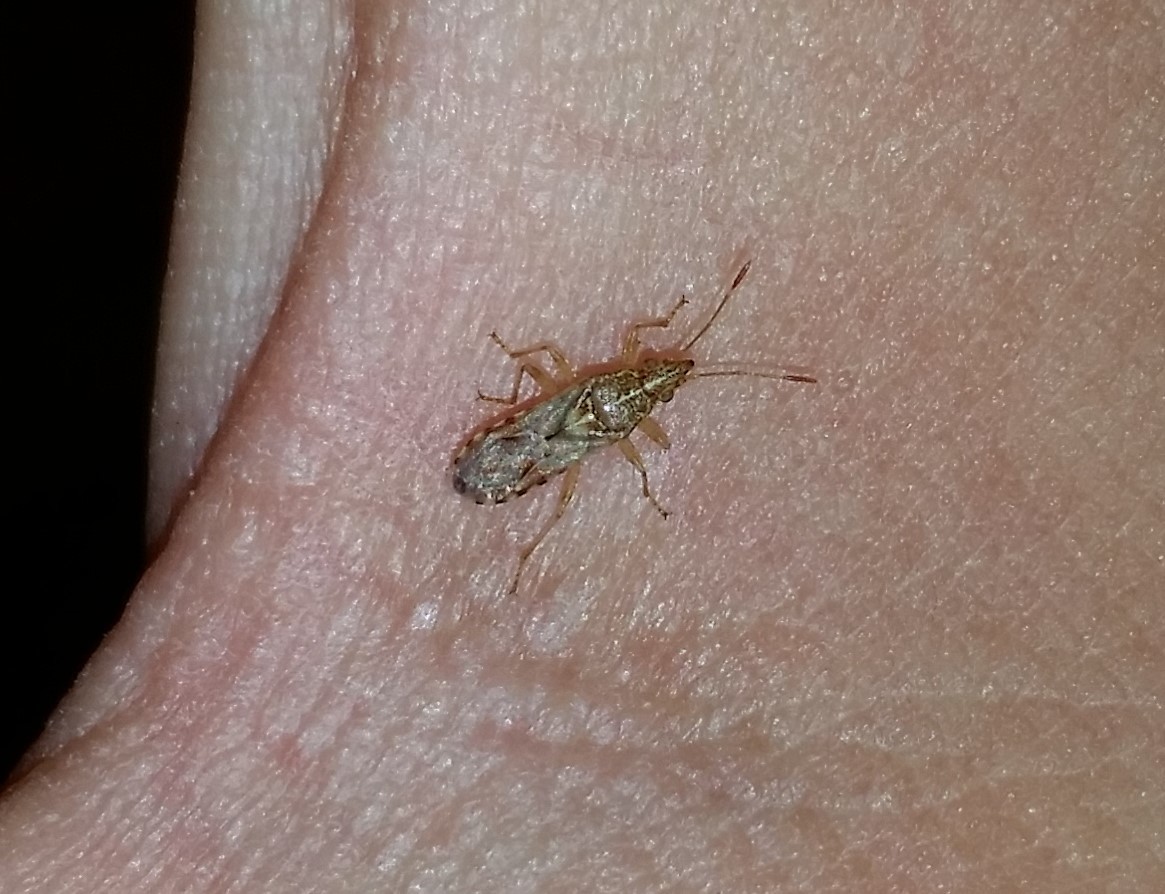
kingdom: Animalia
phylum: Arthropoda
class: Insecta
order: Hemiptera
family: Lygaeidae
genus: Belonochilus
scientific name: Belonochilus numenius
